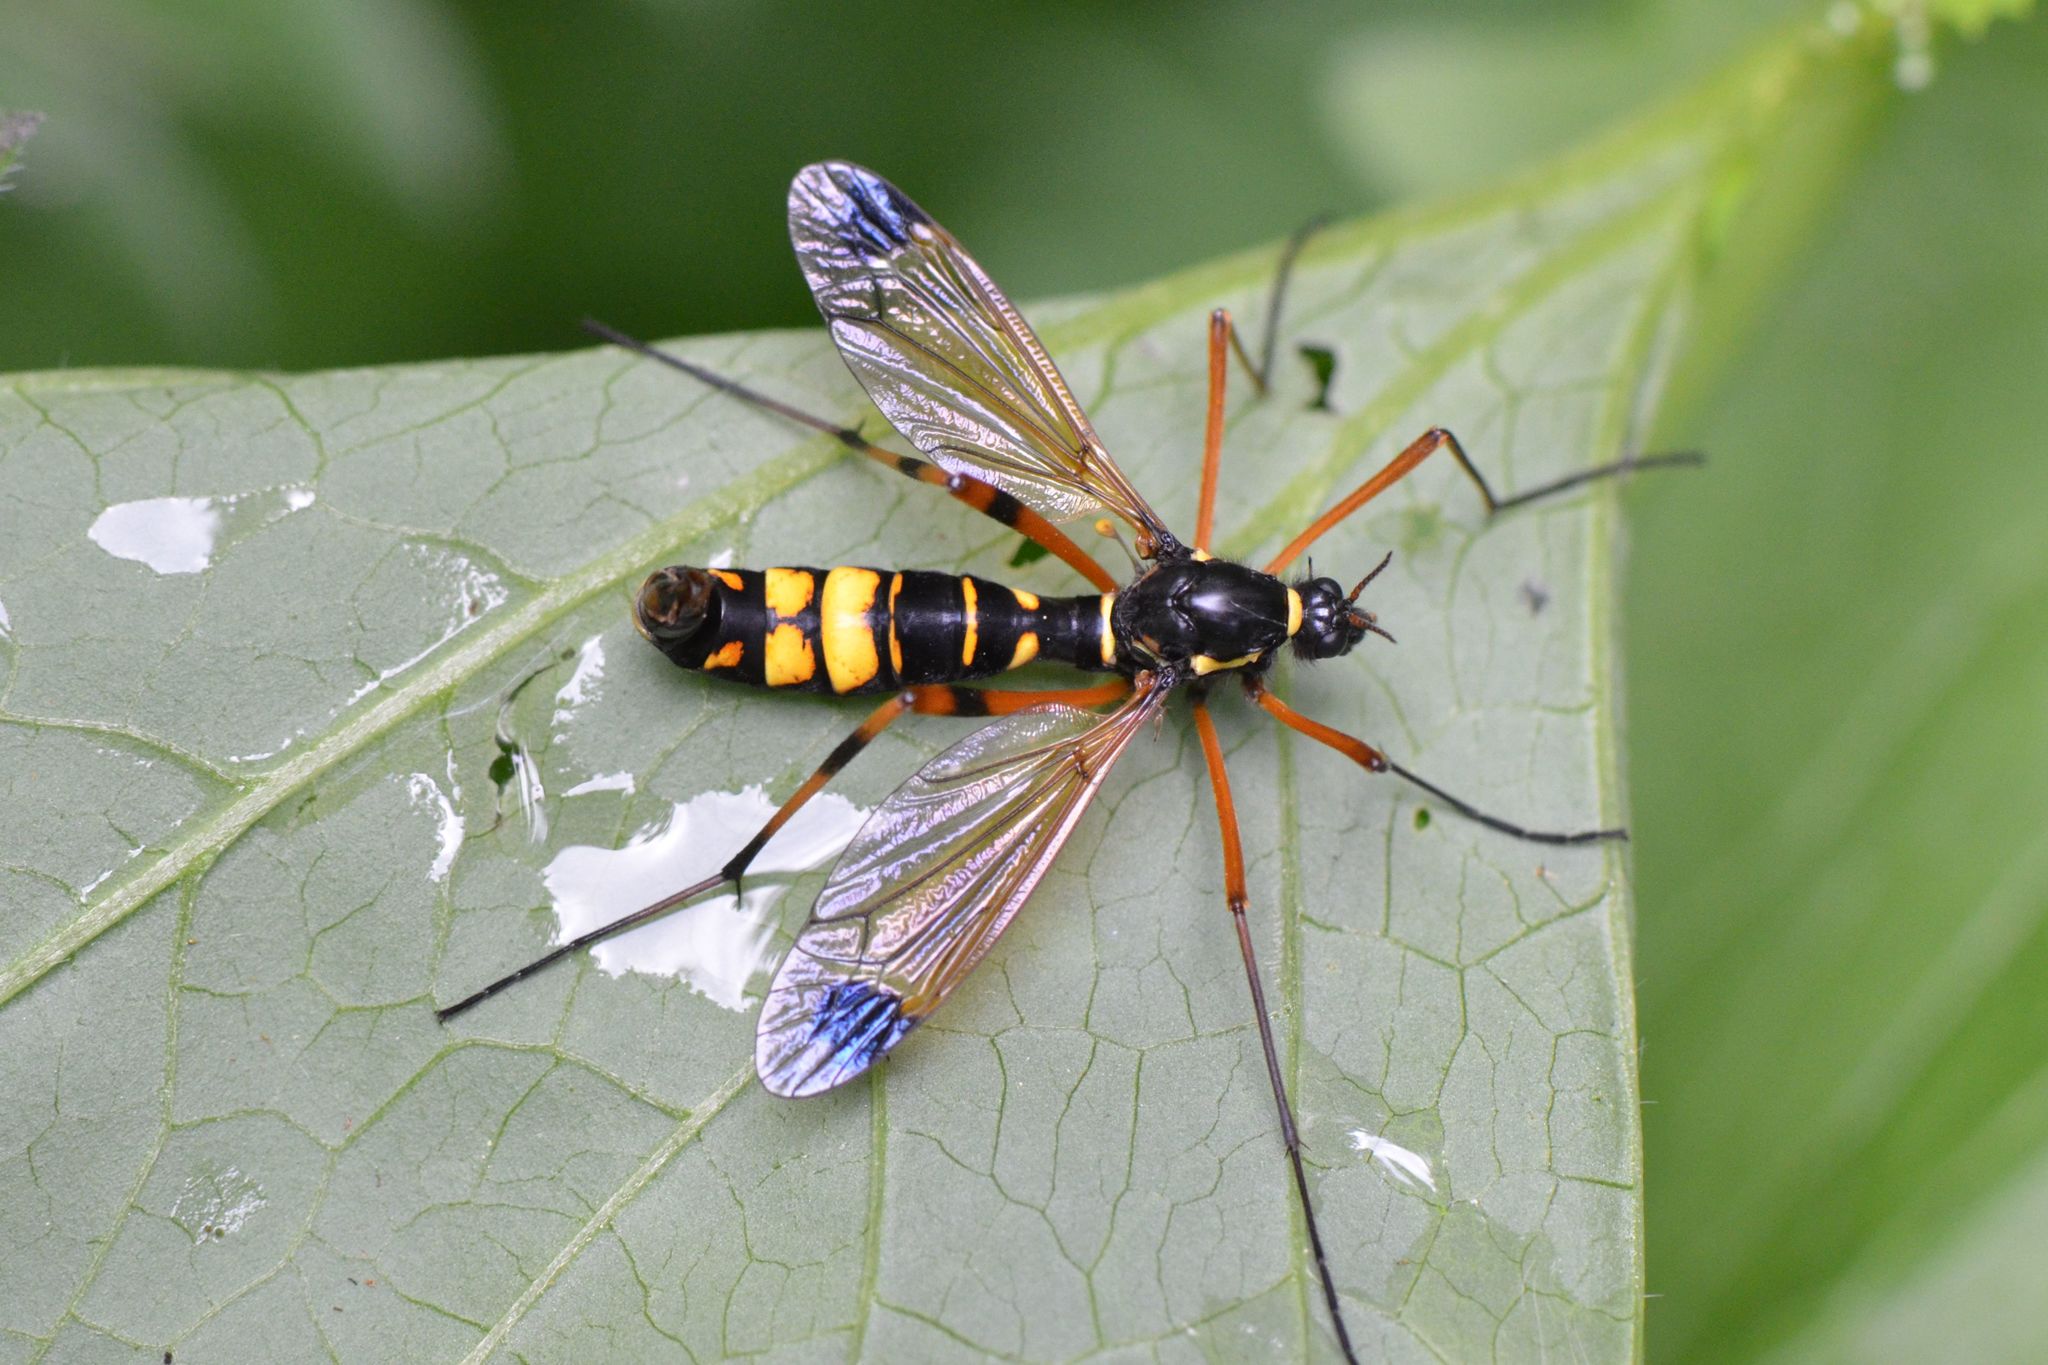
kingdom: Animalia
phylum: Arthropoda
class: Insecta
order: Diptera
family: Tipulidae
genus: Ctenophora
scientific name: Ctenophora festiva
